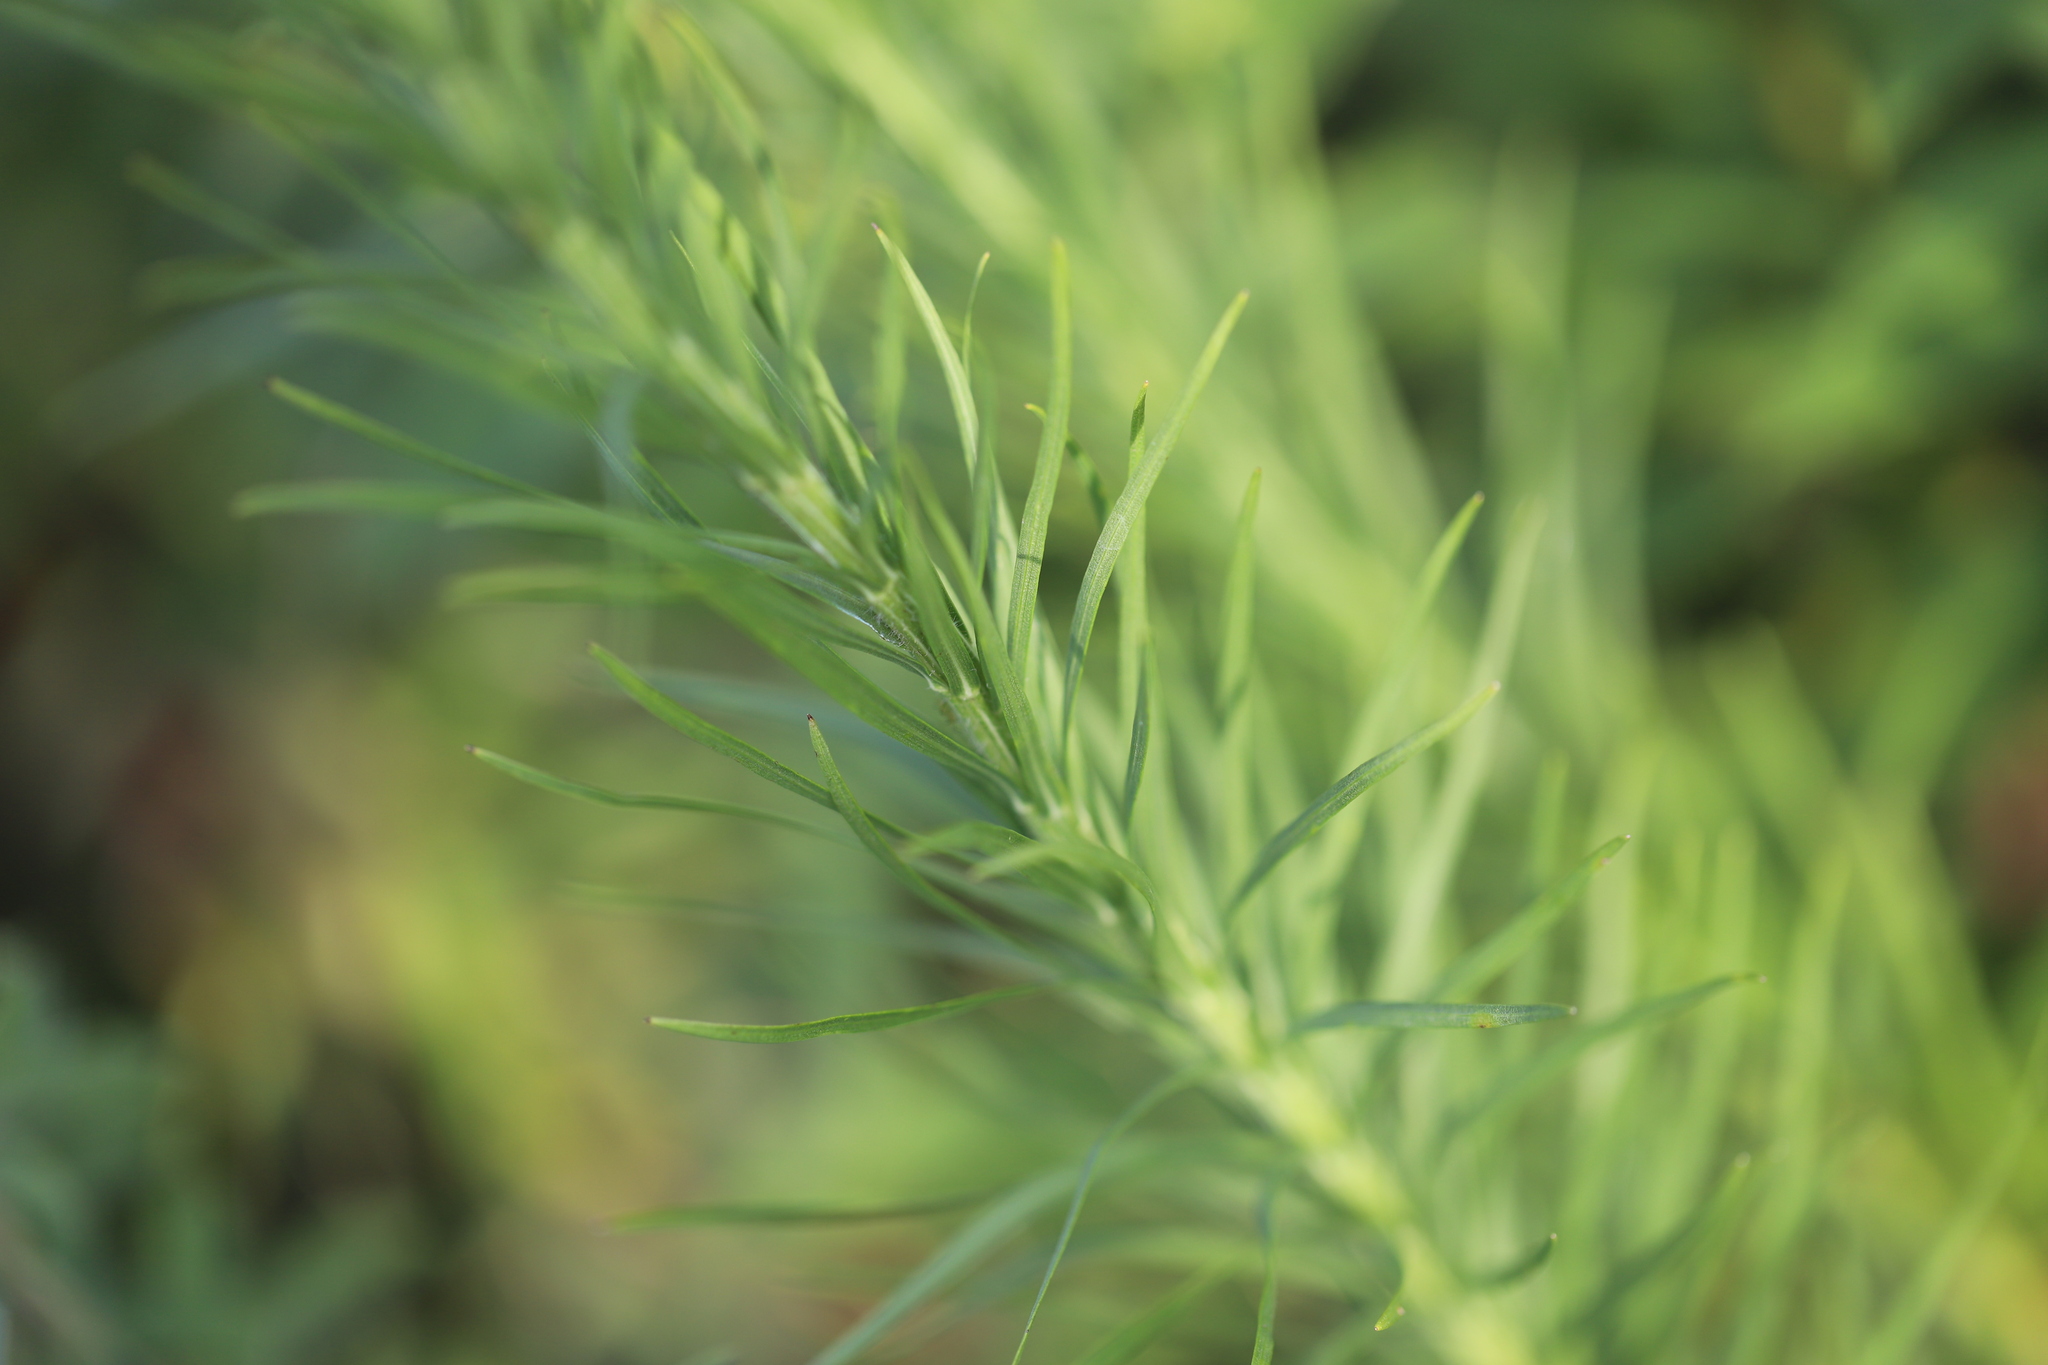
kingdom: Plantae
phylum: Tracheophyta
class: Magnoliopsida
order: Asterales
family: Asteraceae
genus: Liatris
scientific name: Liatris pycnostachya
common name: Cattail gayfeather
